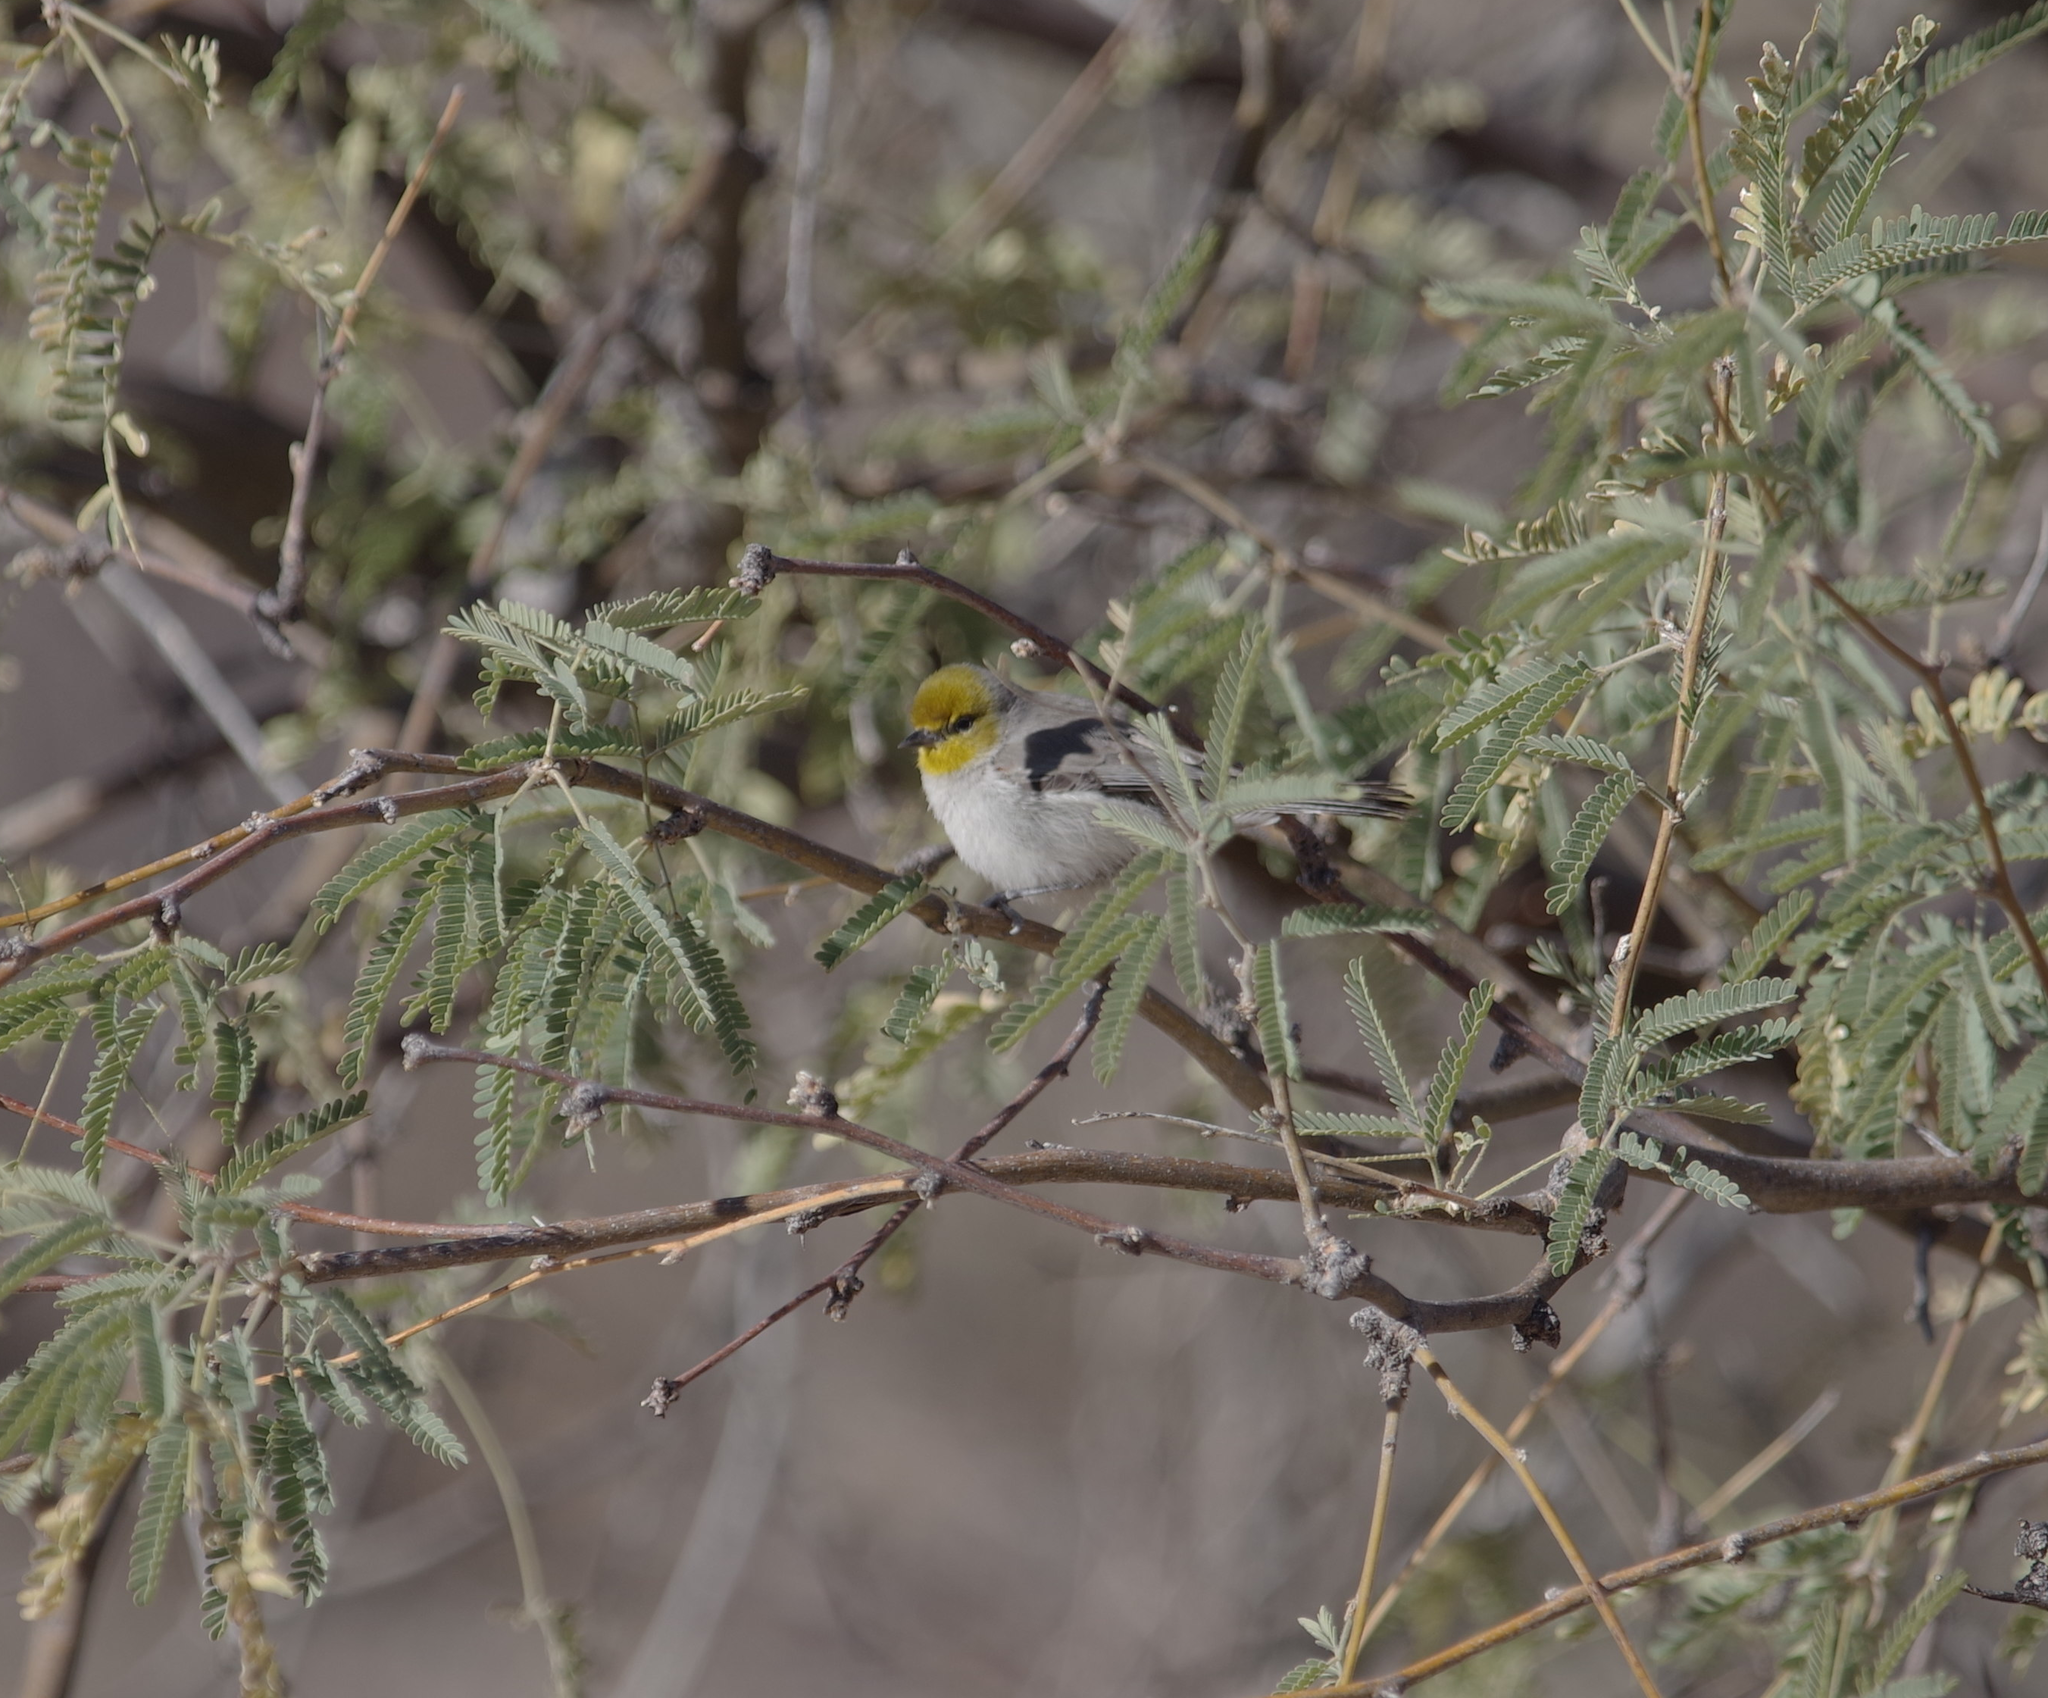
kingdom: Animalia
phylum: Chordata
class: Aves
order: Passeriformes
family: Remizidae
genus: Auriparus
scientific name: Auriparus flaviceps
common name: Verdin
